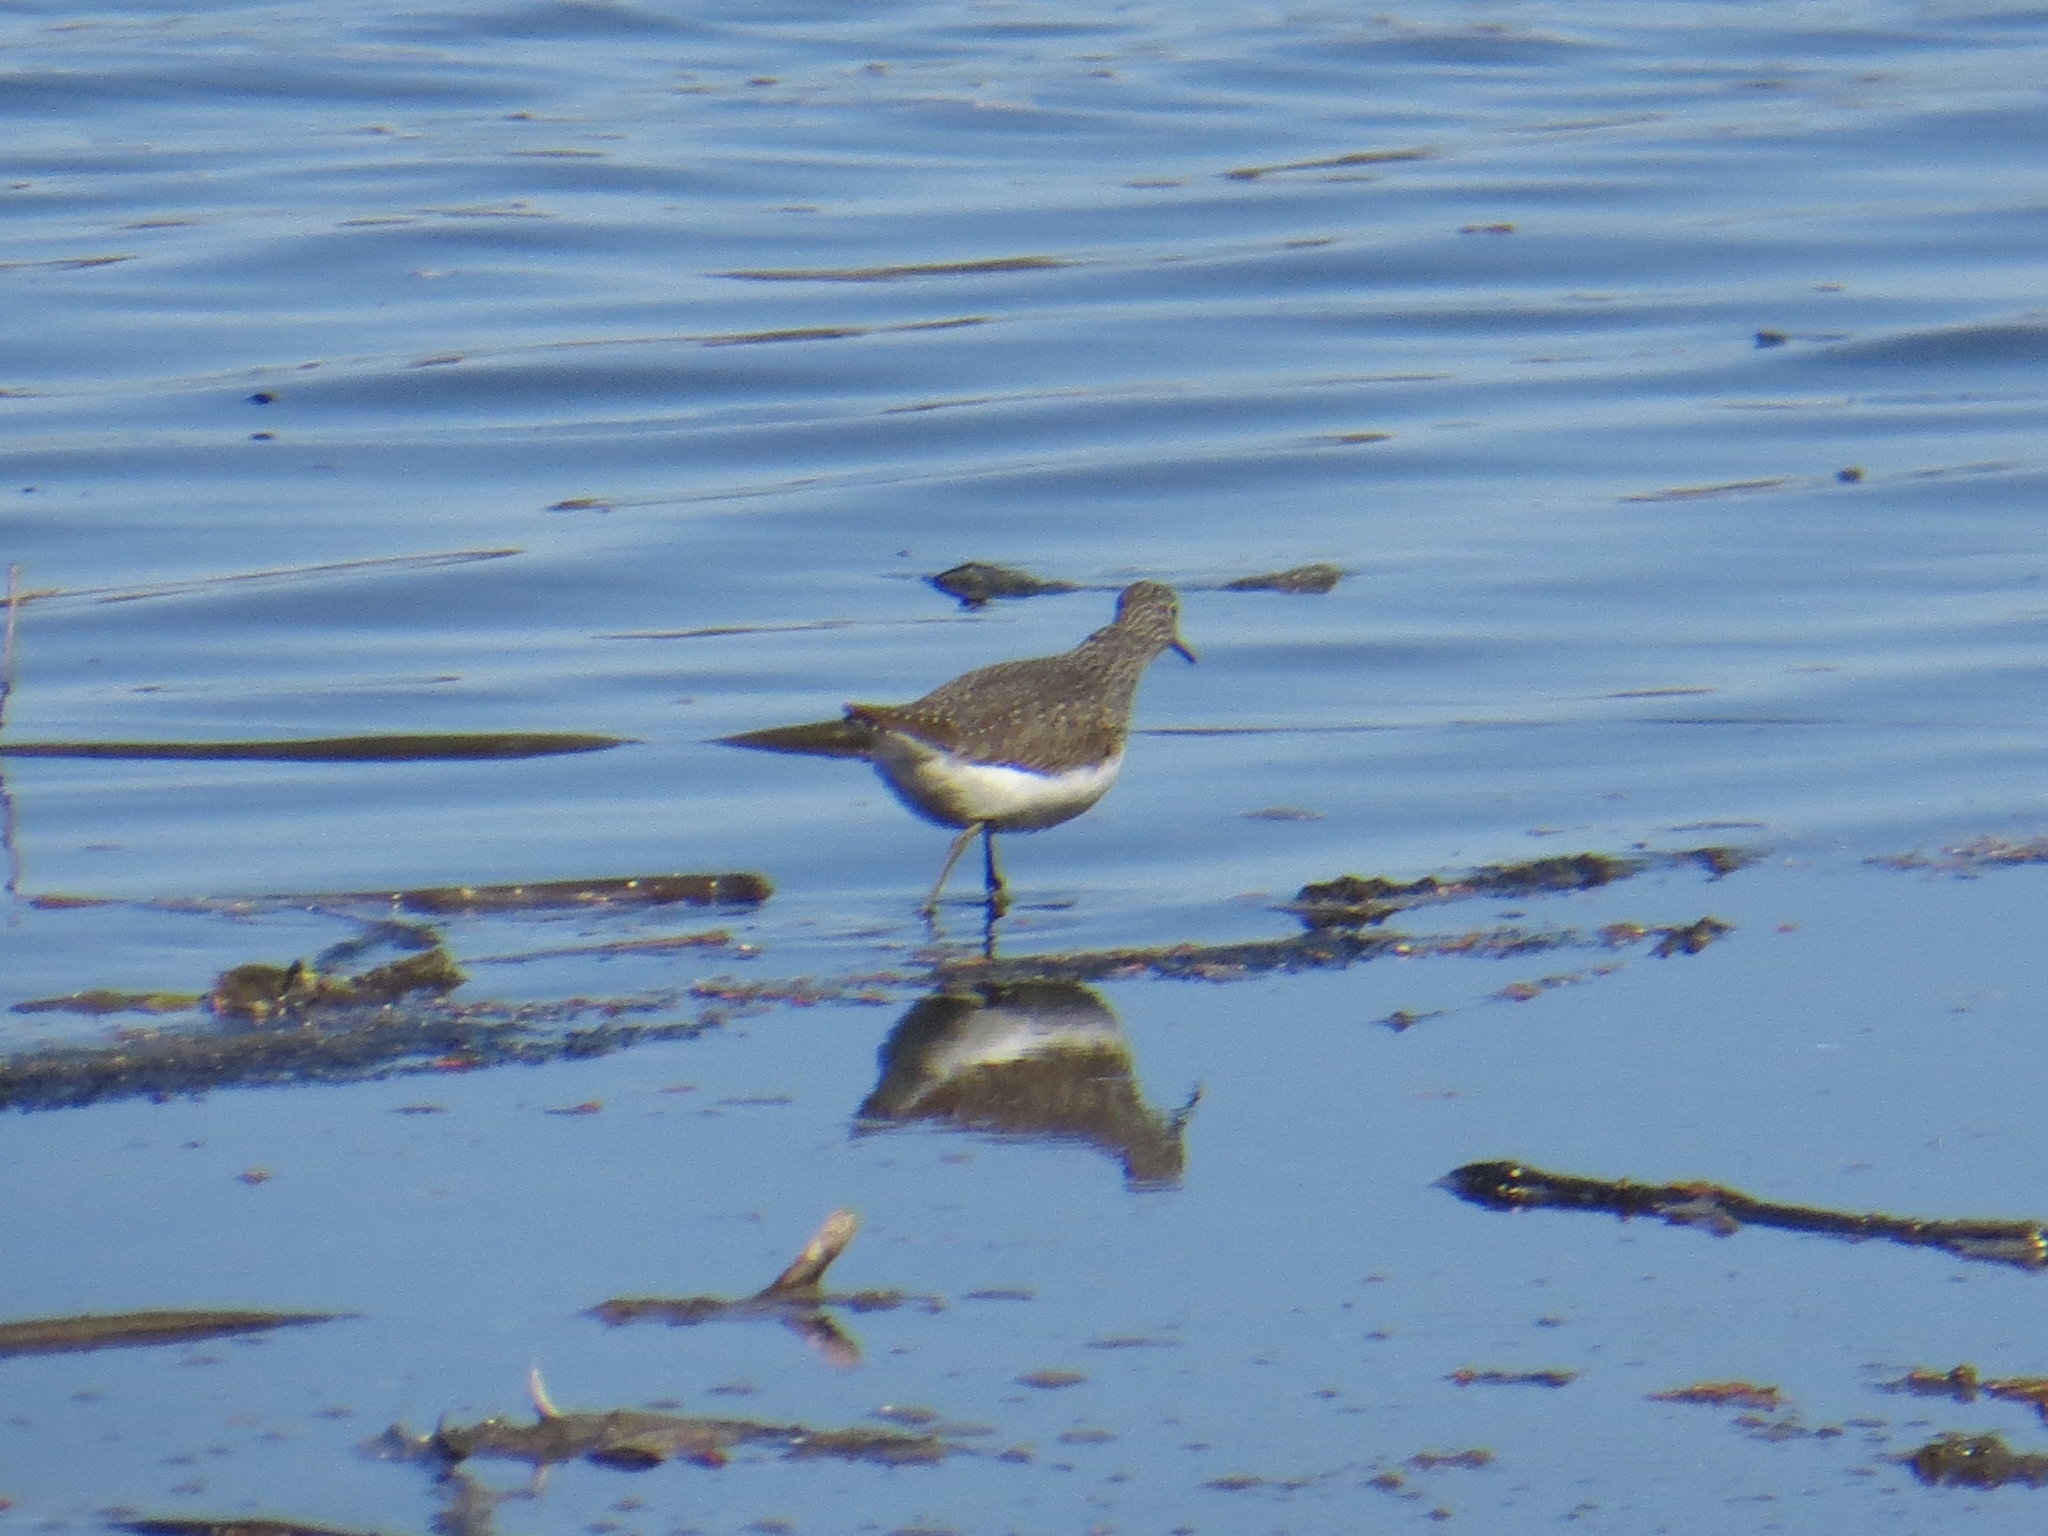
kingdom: Animalia
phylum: Chordata
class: Aves
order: Charadriiformes
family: Scolopacidae
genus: Tringa
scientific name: Tringa ochropus
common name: Green sandpiper
